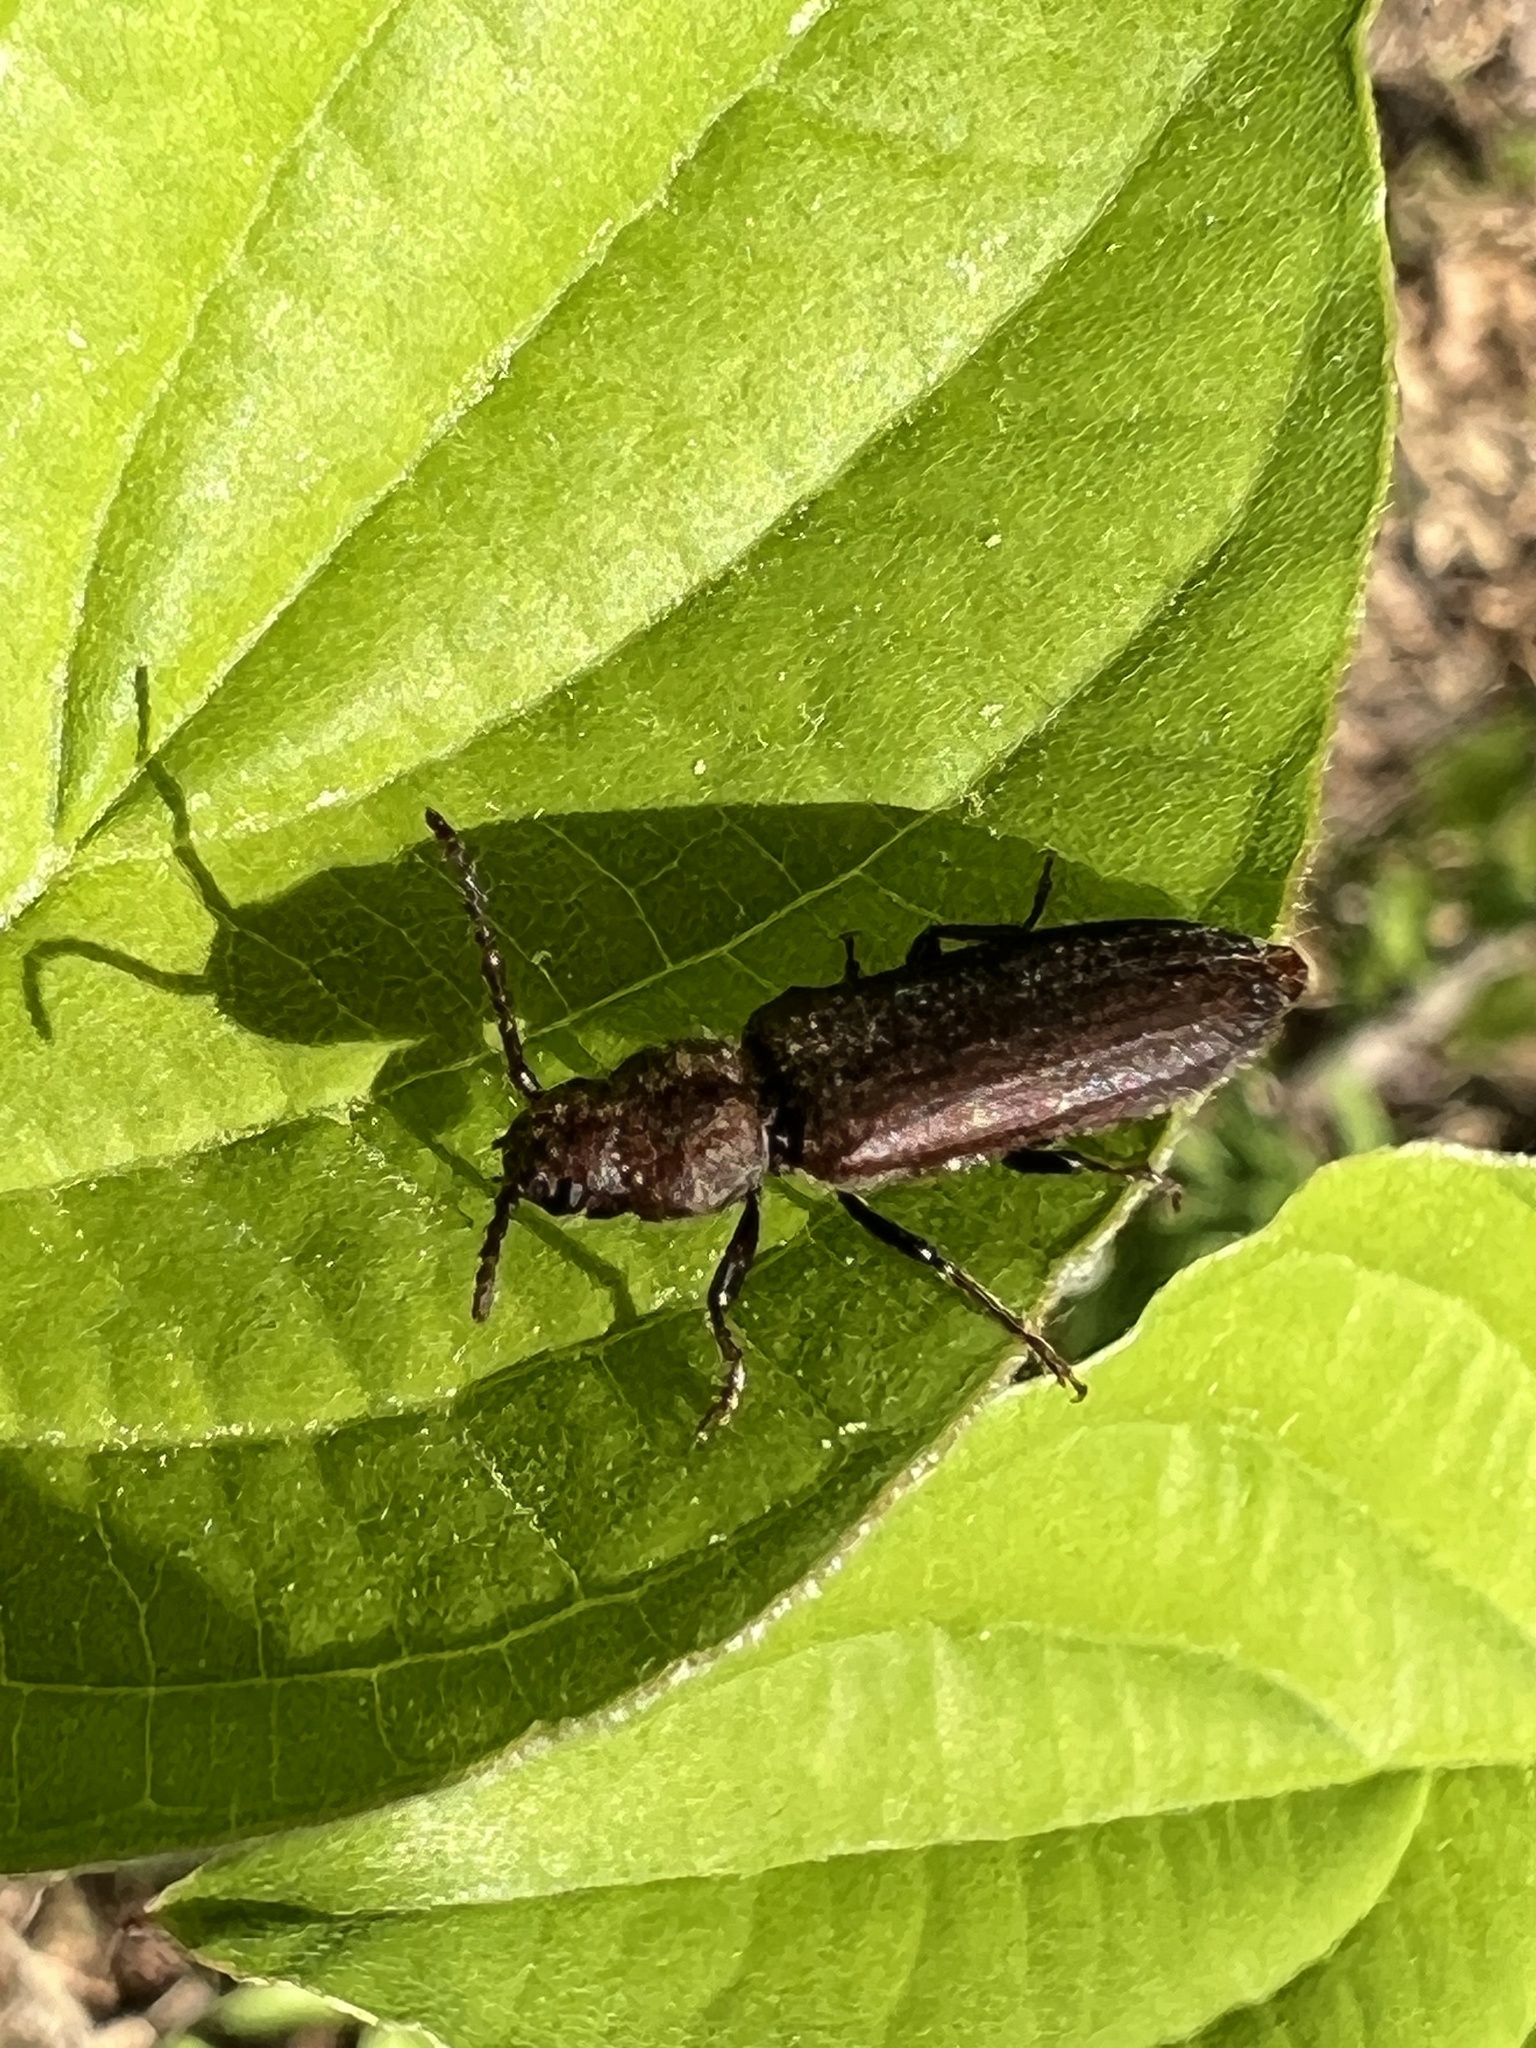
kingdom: Animalia
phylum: Arthropoda
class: Insecta
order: Coleoptera
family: Cerambycidae
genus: Asemum
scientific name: Asemum striatum
